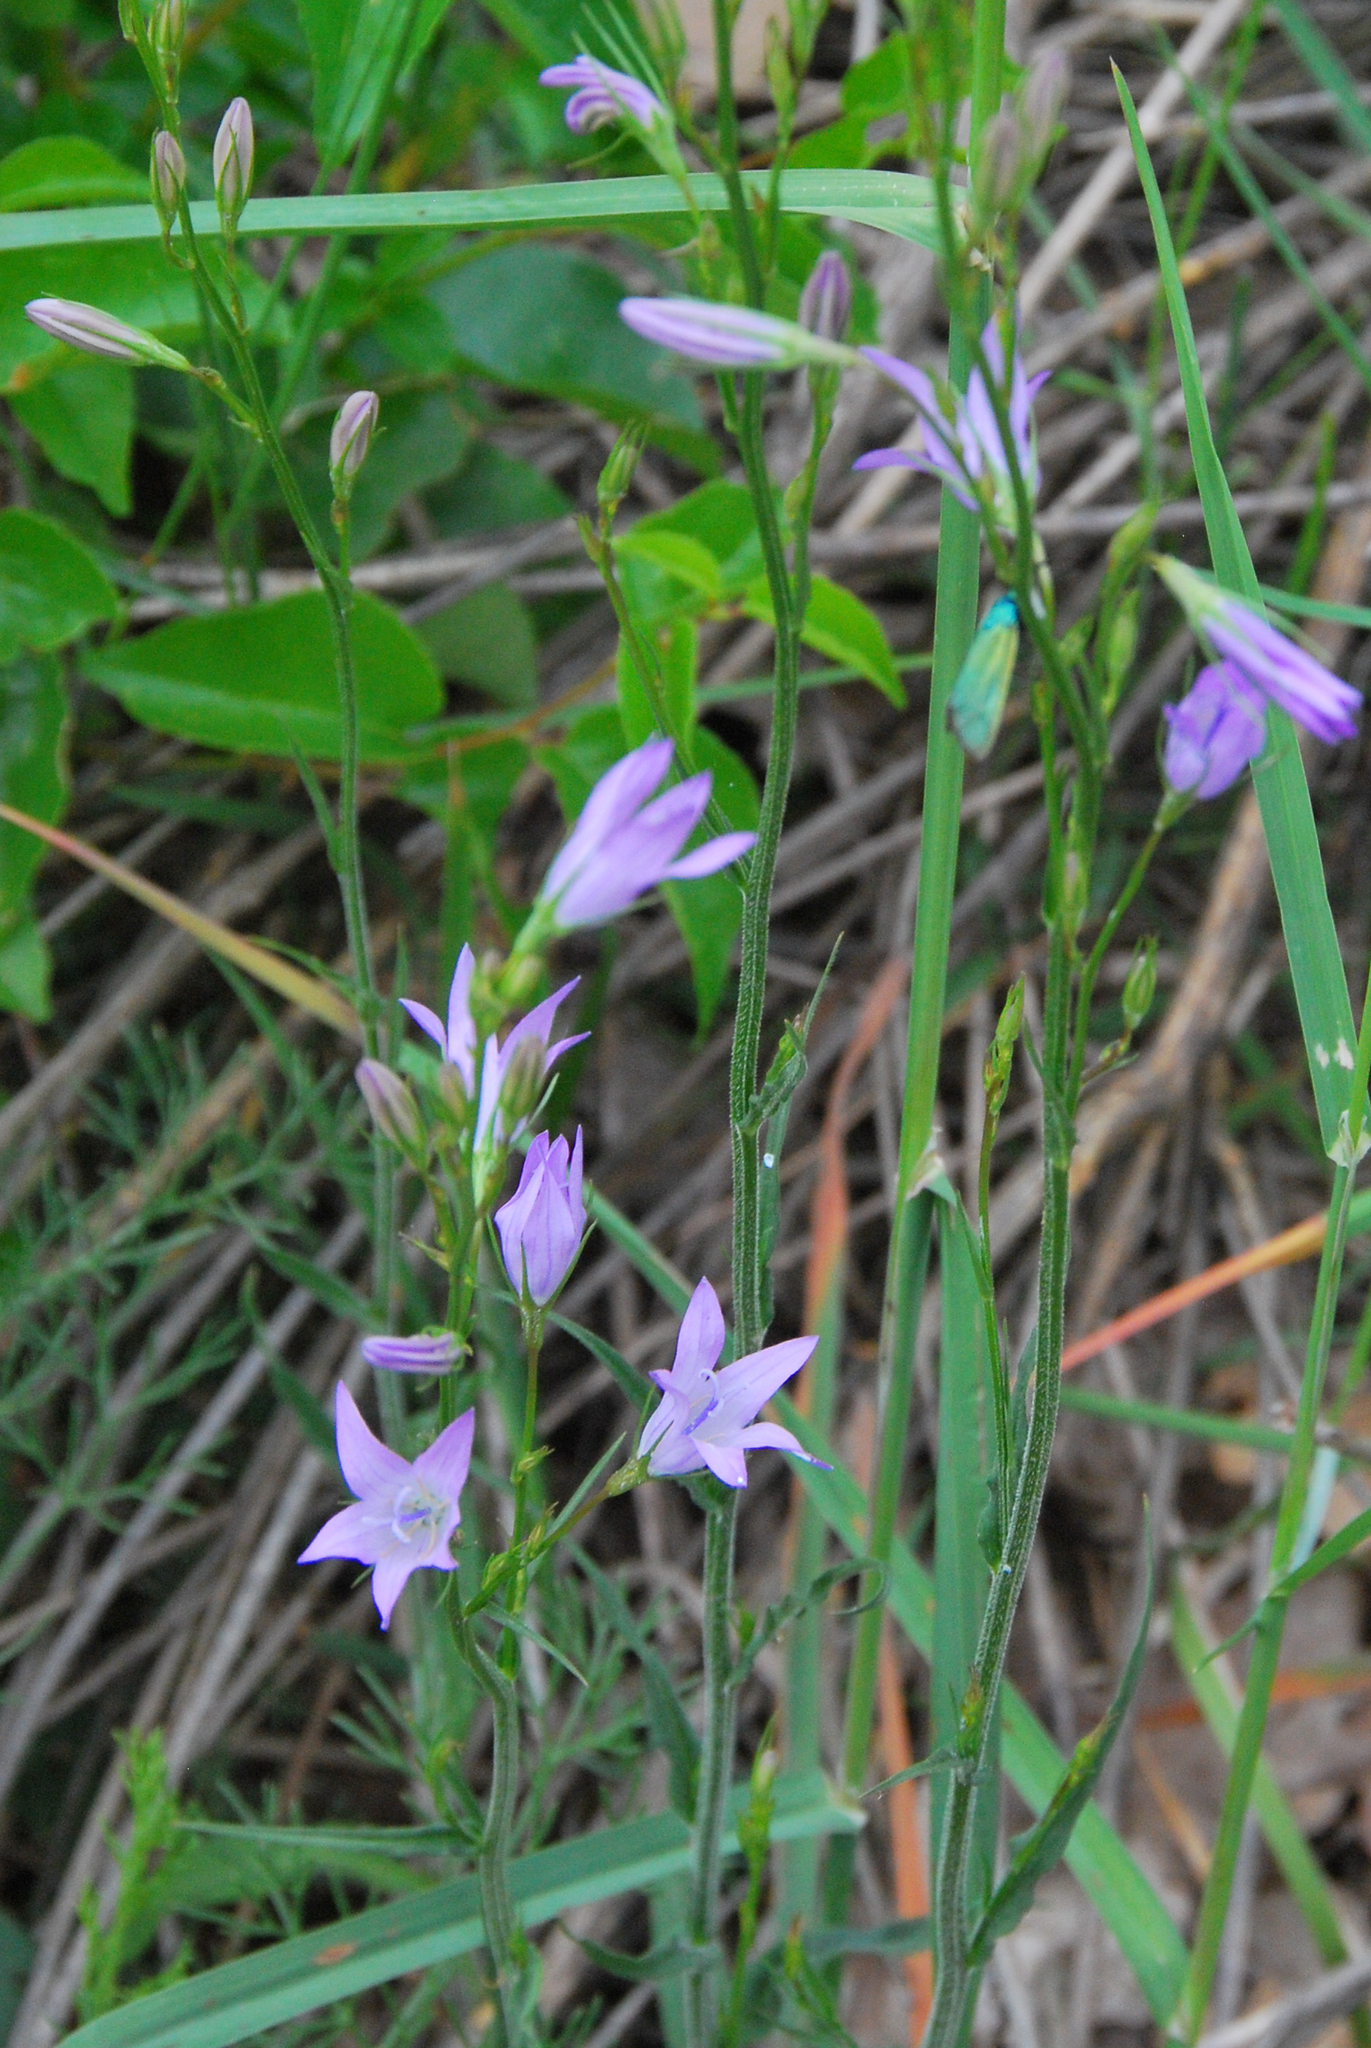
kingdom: Plantae
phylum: Tracheophyta
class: Magnoliopsida
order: Asterales
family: Campanulaceae
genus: Campanula
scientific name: Campanula rapunculus
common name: Rampion bellflower
